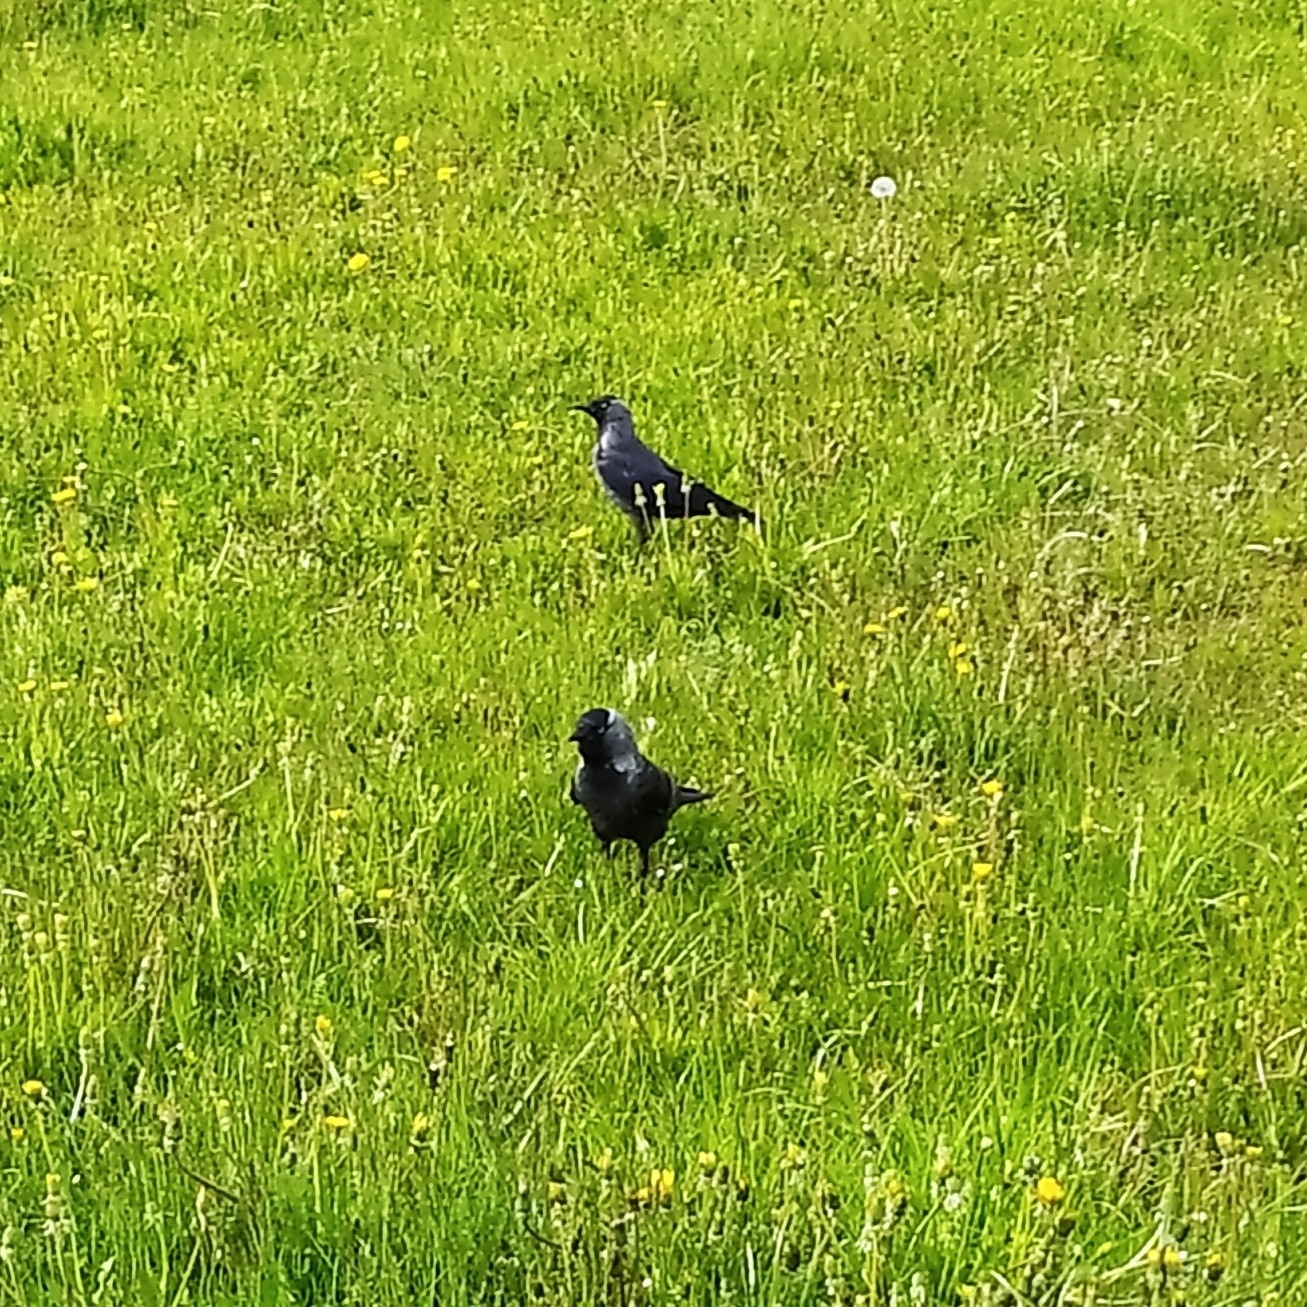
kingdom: Animalia
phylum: Chordata
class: Aves
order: Passeriformes
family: Corvidae
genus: Coloeus
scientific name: Coloeus monedula
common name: Western jackdaw
